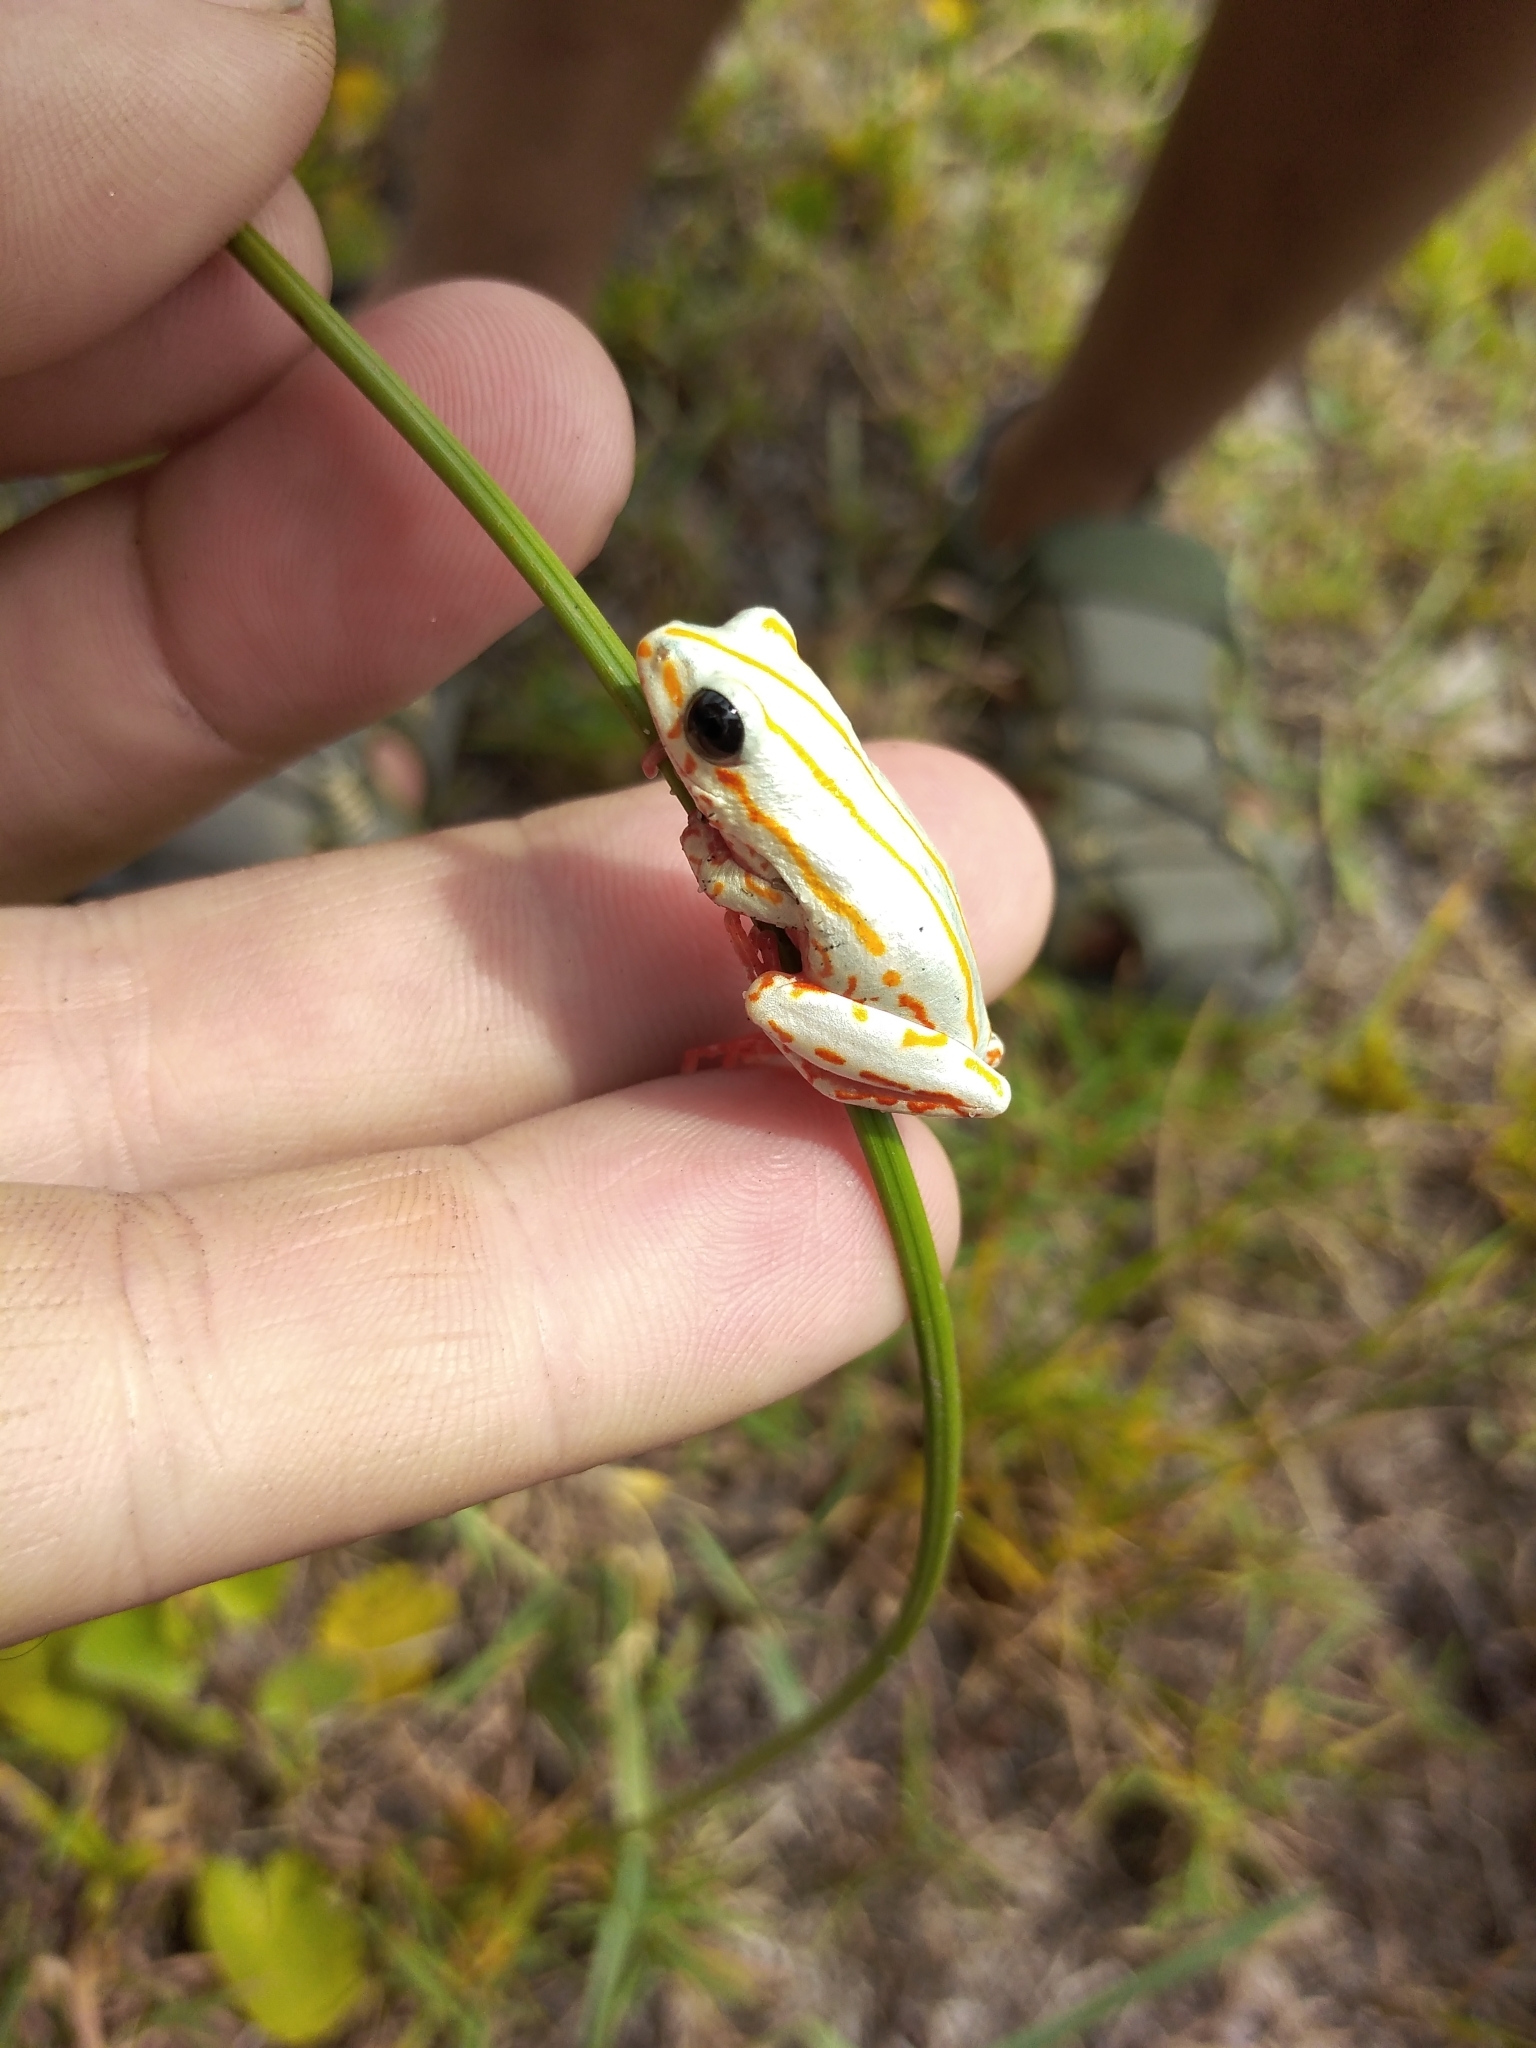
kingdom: Animalia
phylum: Chordata
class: Amphibia
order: Anura
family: Hyperoliidae
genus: Hyperolius
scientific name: Hyperolius marmoratus
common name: Painted reed frog
